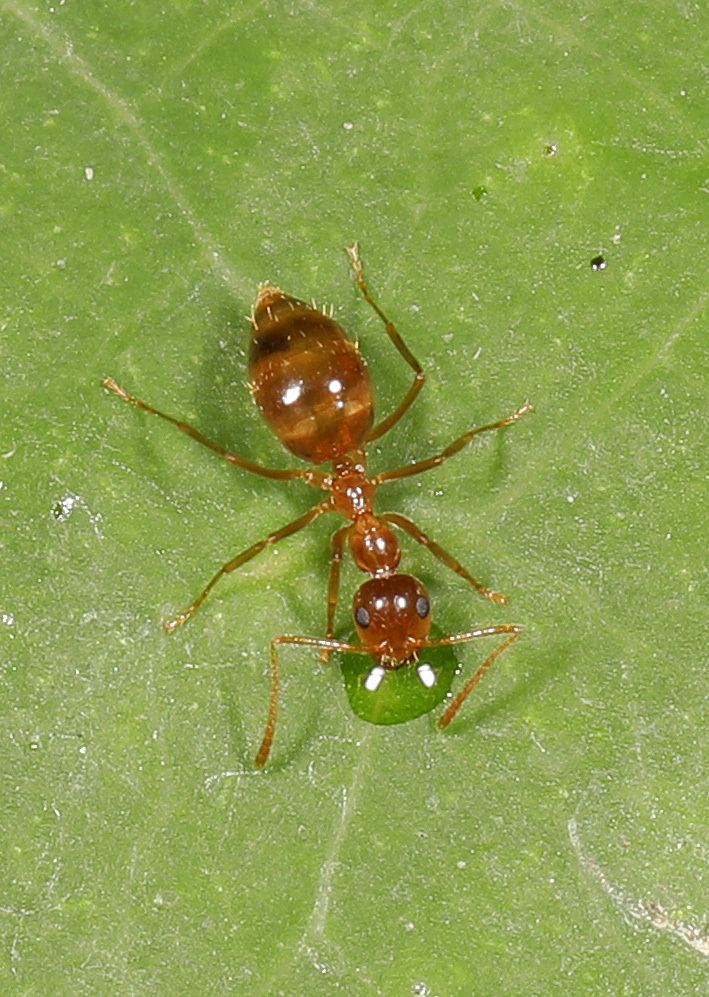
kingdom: Animalia
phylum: Arthropoda
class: Insecta
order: Hymenoptera
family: Formicidae
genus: Prenolepis
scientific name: Prenolepis imparis
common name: Small honey ant
